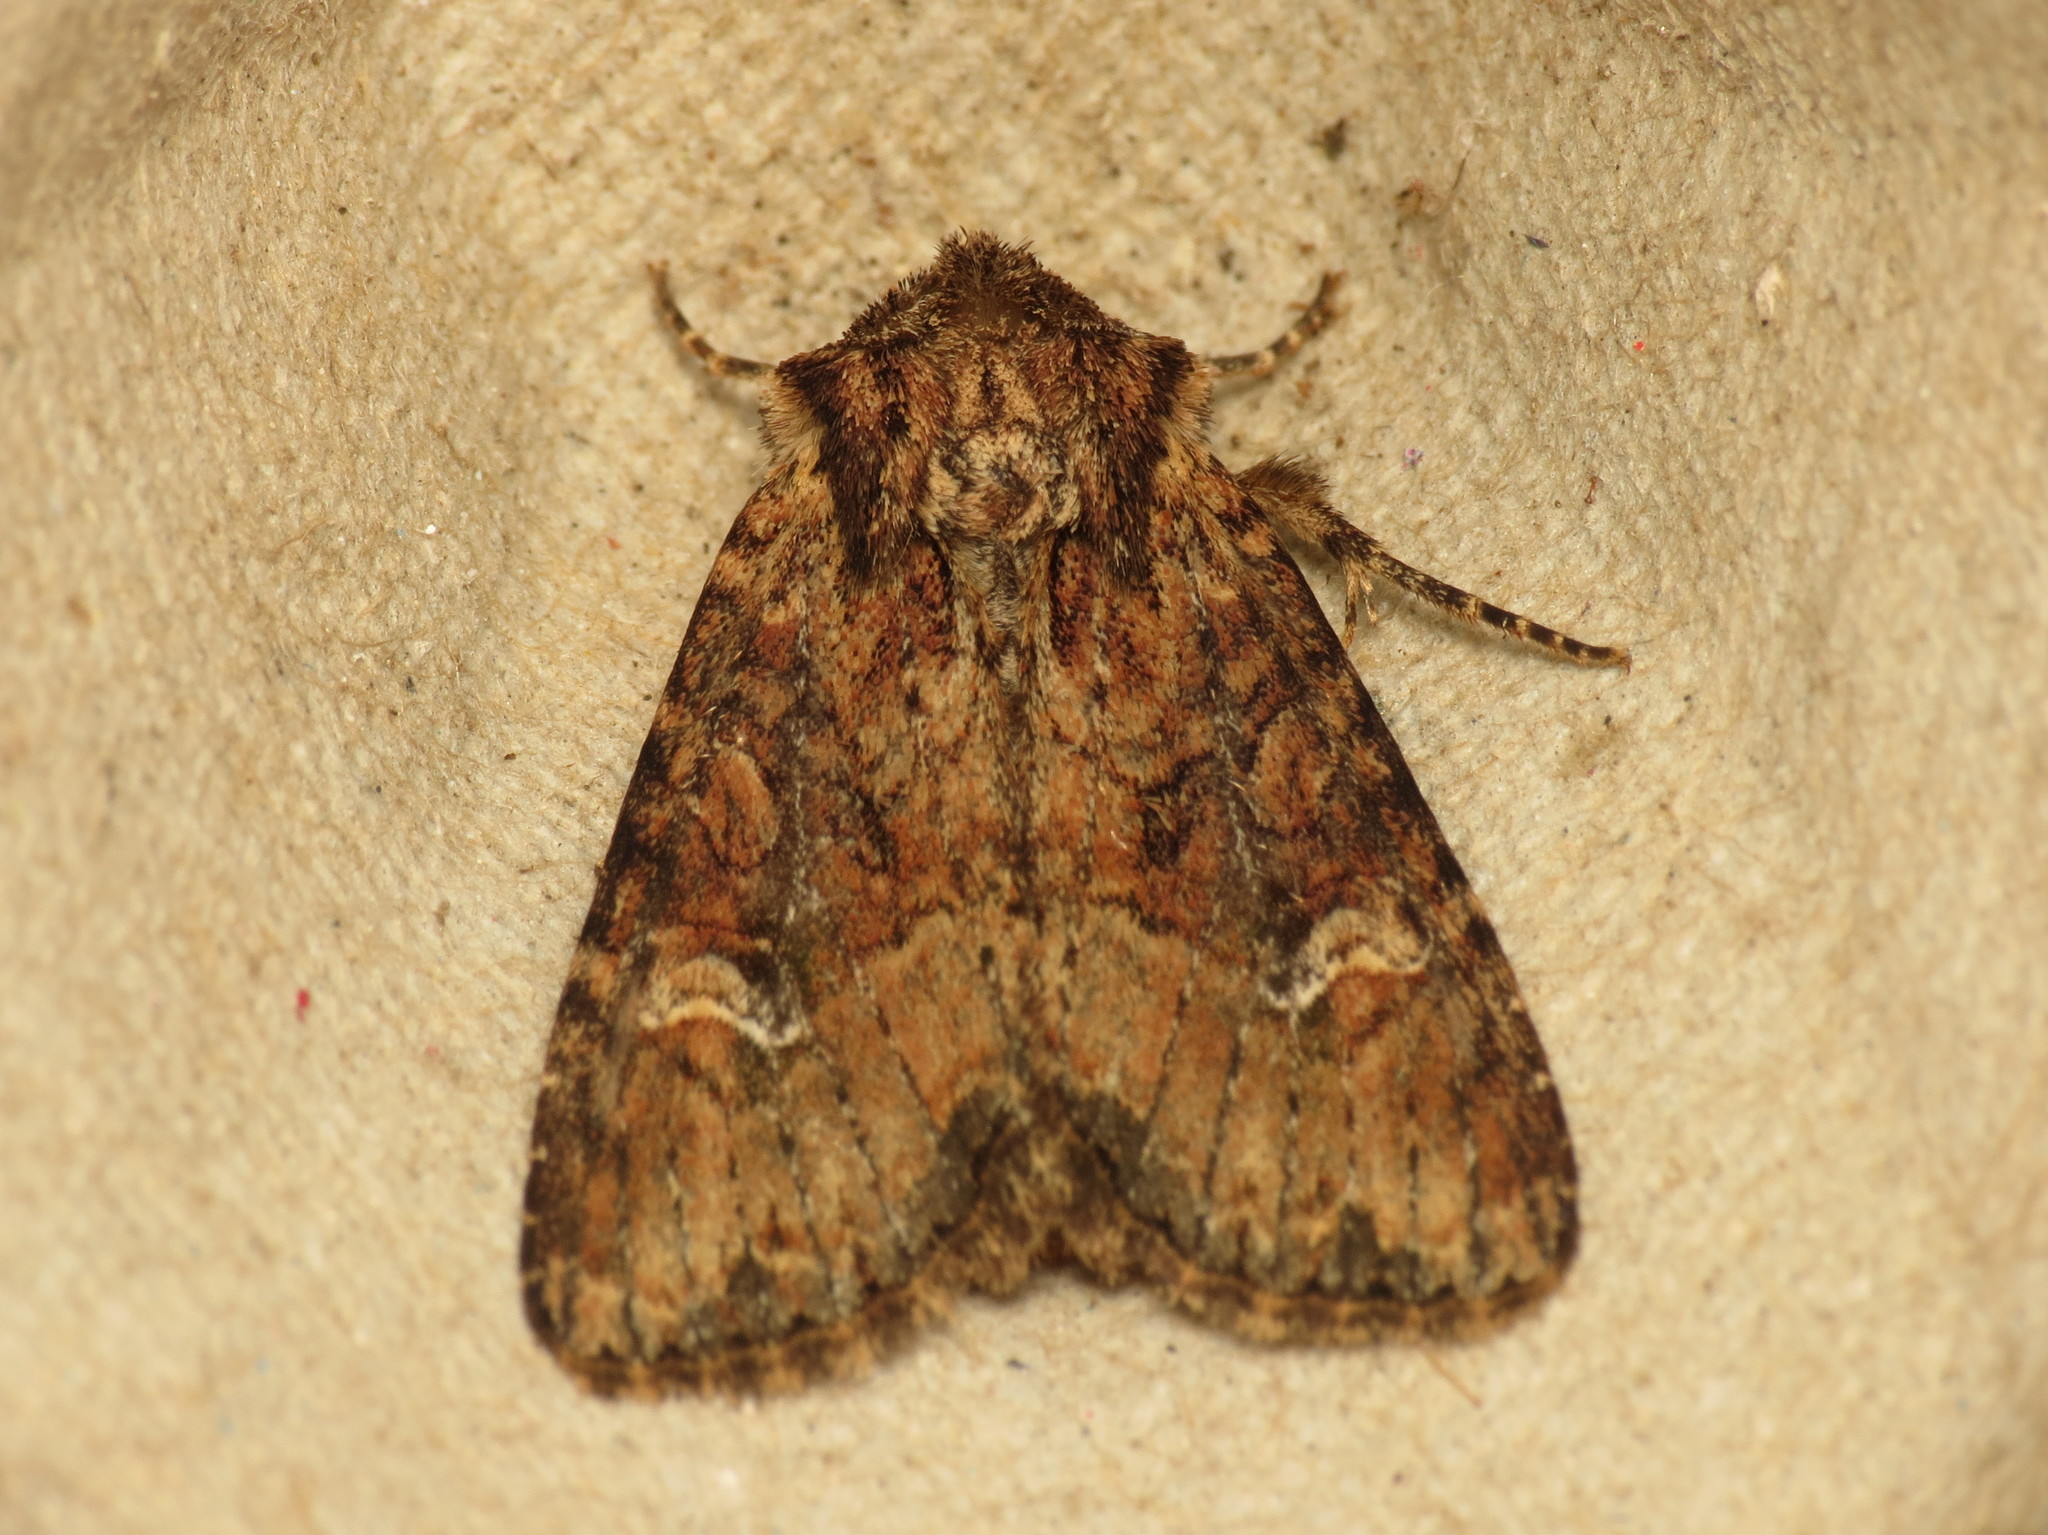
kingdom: Animalia
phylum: Arthropoda
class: Insecta
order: Lepidoptera
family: Noctuidae
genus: Mesapamea
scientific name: Mesapamea
